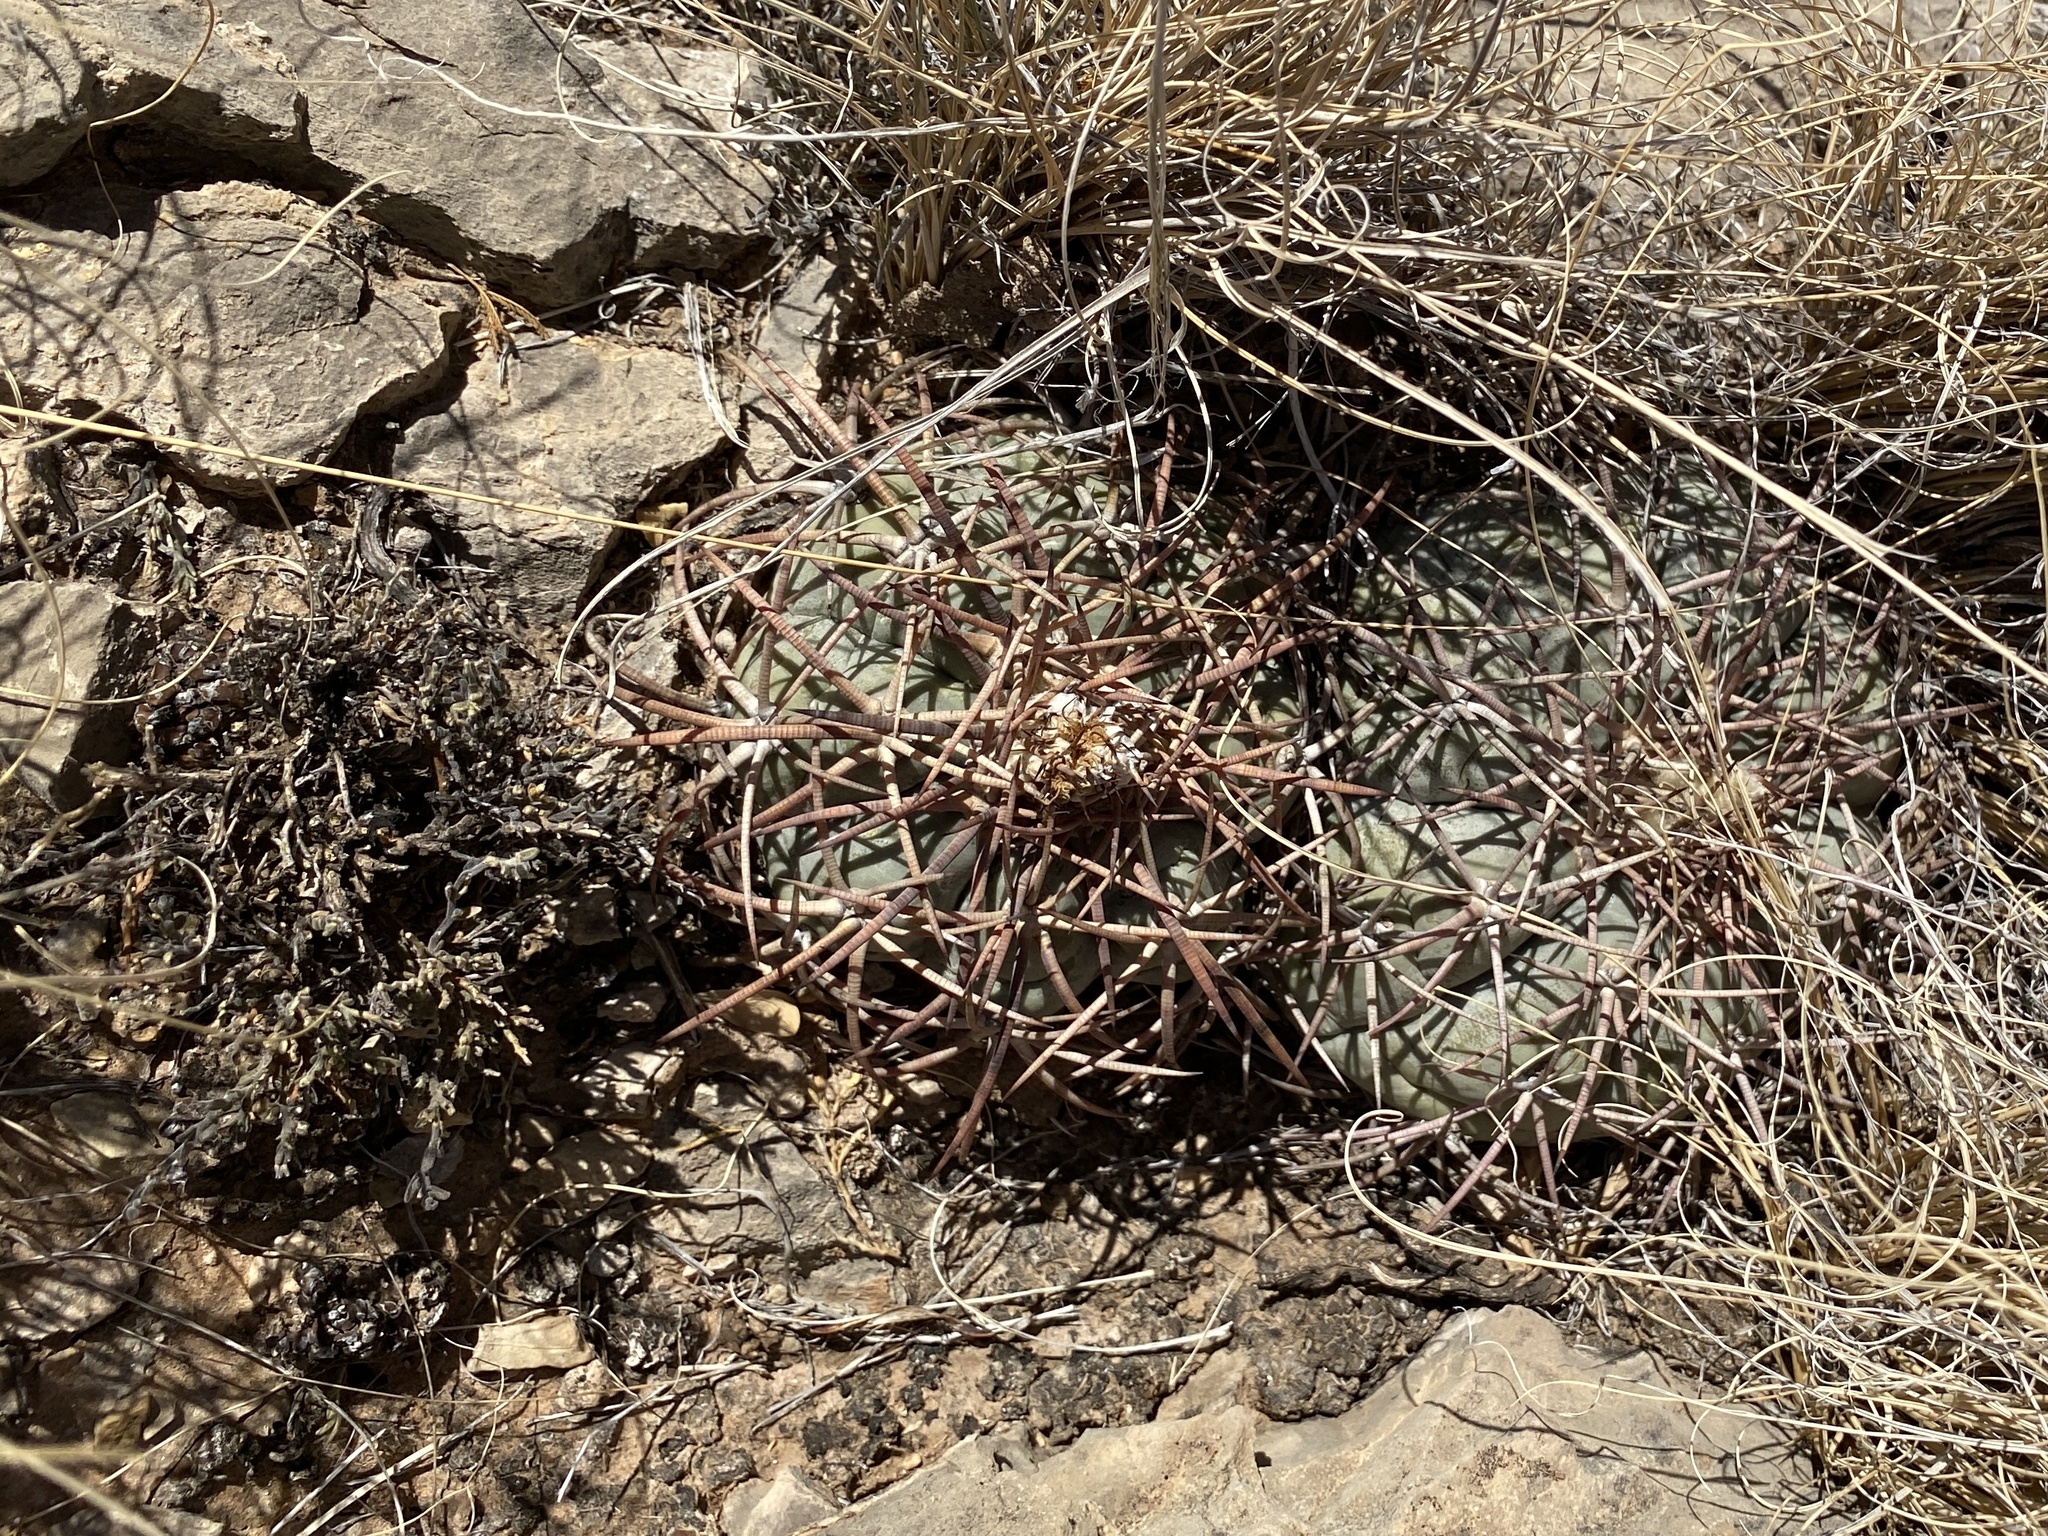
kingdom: Plantae
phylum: Tracheophyta
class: Magnoliopsida
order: Caryophyllales
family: Cactaceae
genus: Echinocactus
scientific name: Echinocactus horizonthalonius
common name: Devilshead
